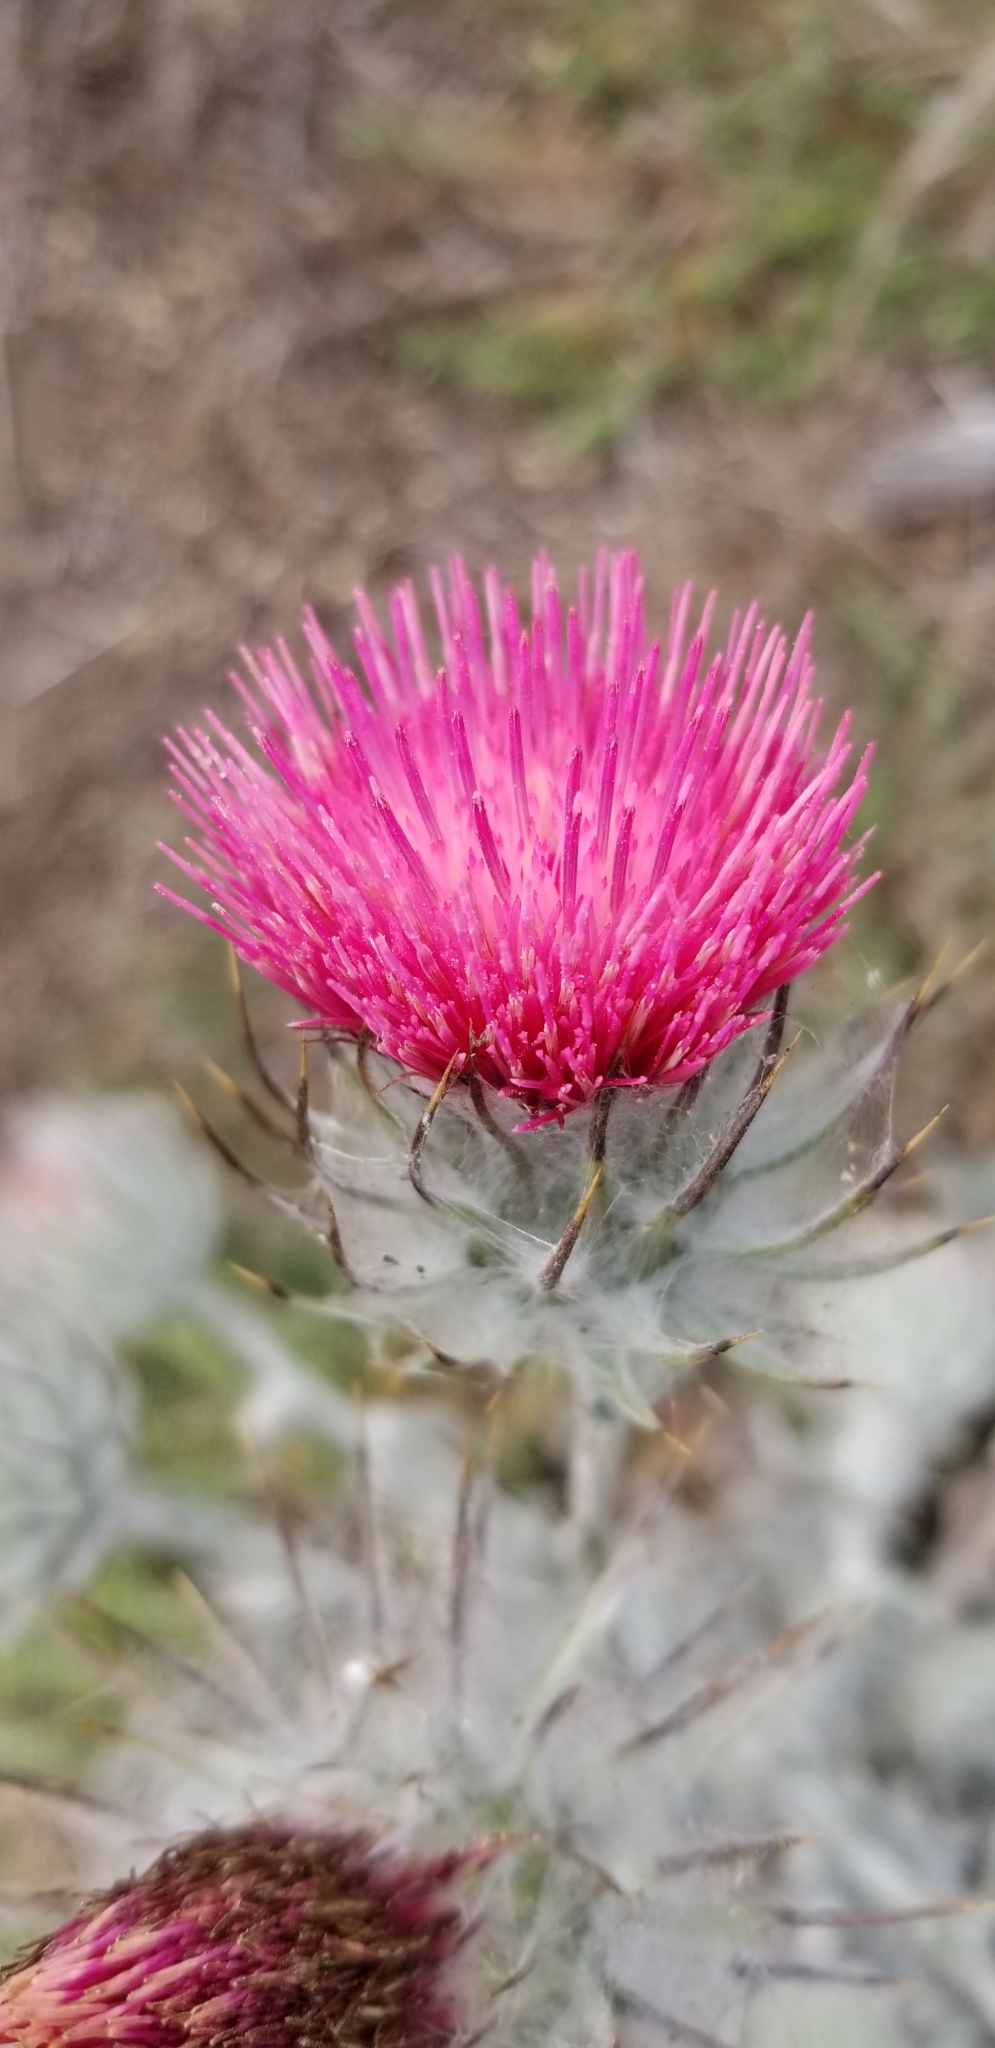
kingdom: Plantae
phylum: Tracheophyta
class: Magnoliopsida
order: Asterales
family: Asteraceae
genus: Cirsium
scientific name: Cirsium occidentale
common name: Western thistle
